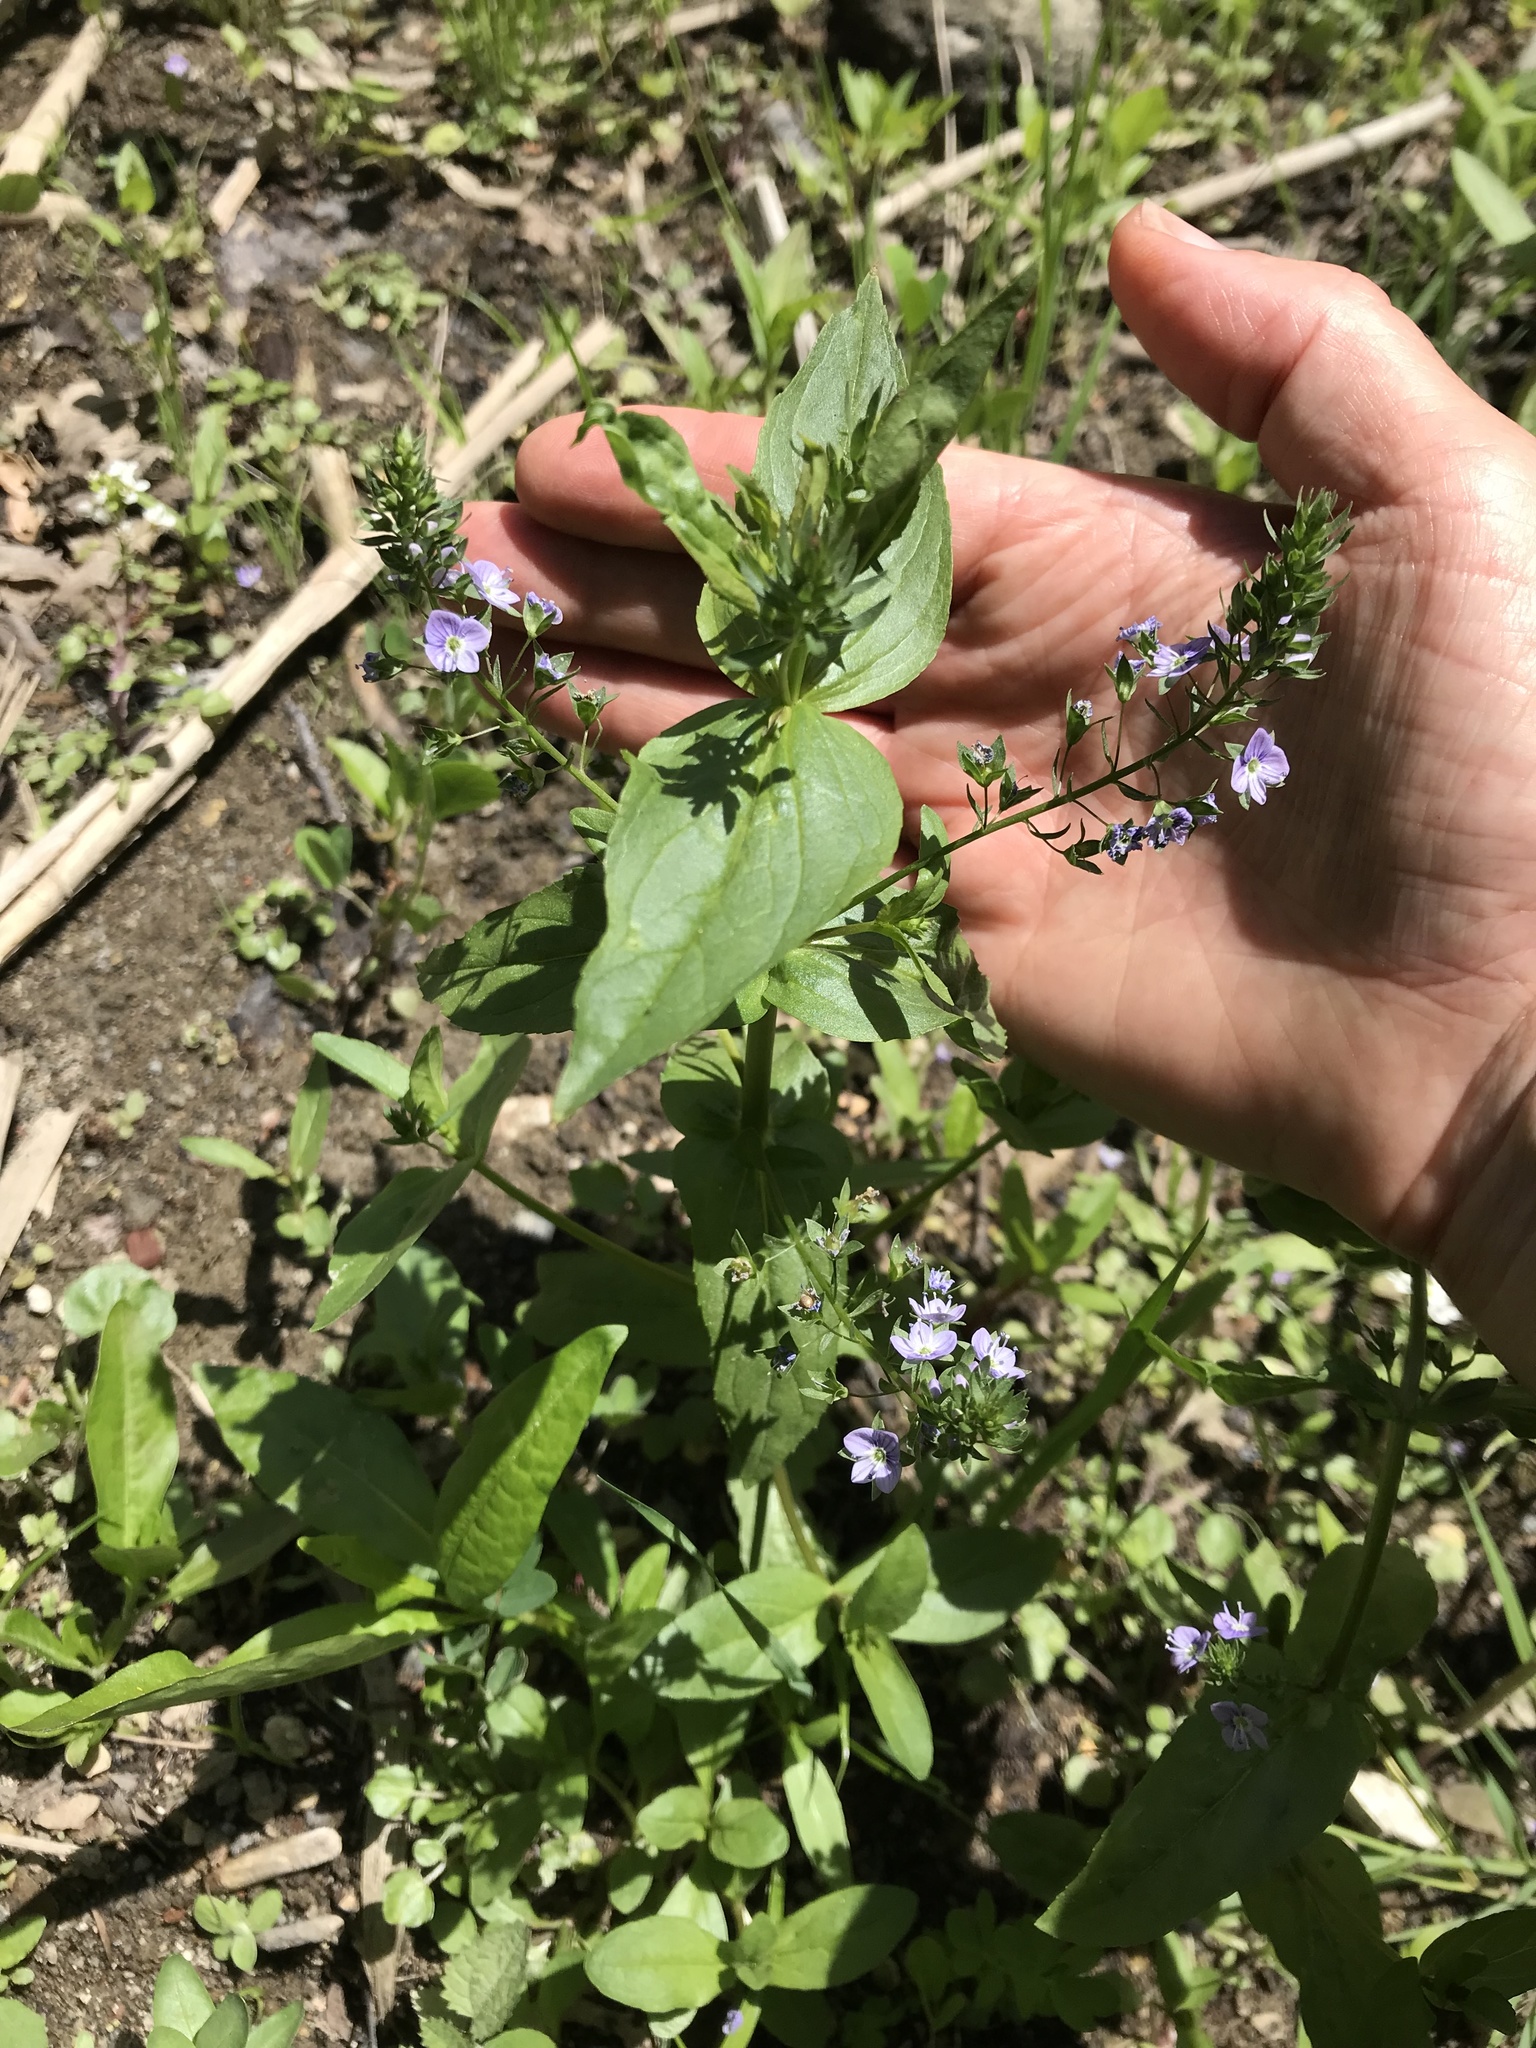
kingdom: Plantae
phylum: Tracheophyta
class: Magnoliopsida
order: Lamiales
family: Plantaginaceae
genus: Veronica
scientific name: Veronica anagallis-aquatica
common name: Water speedwell
